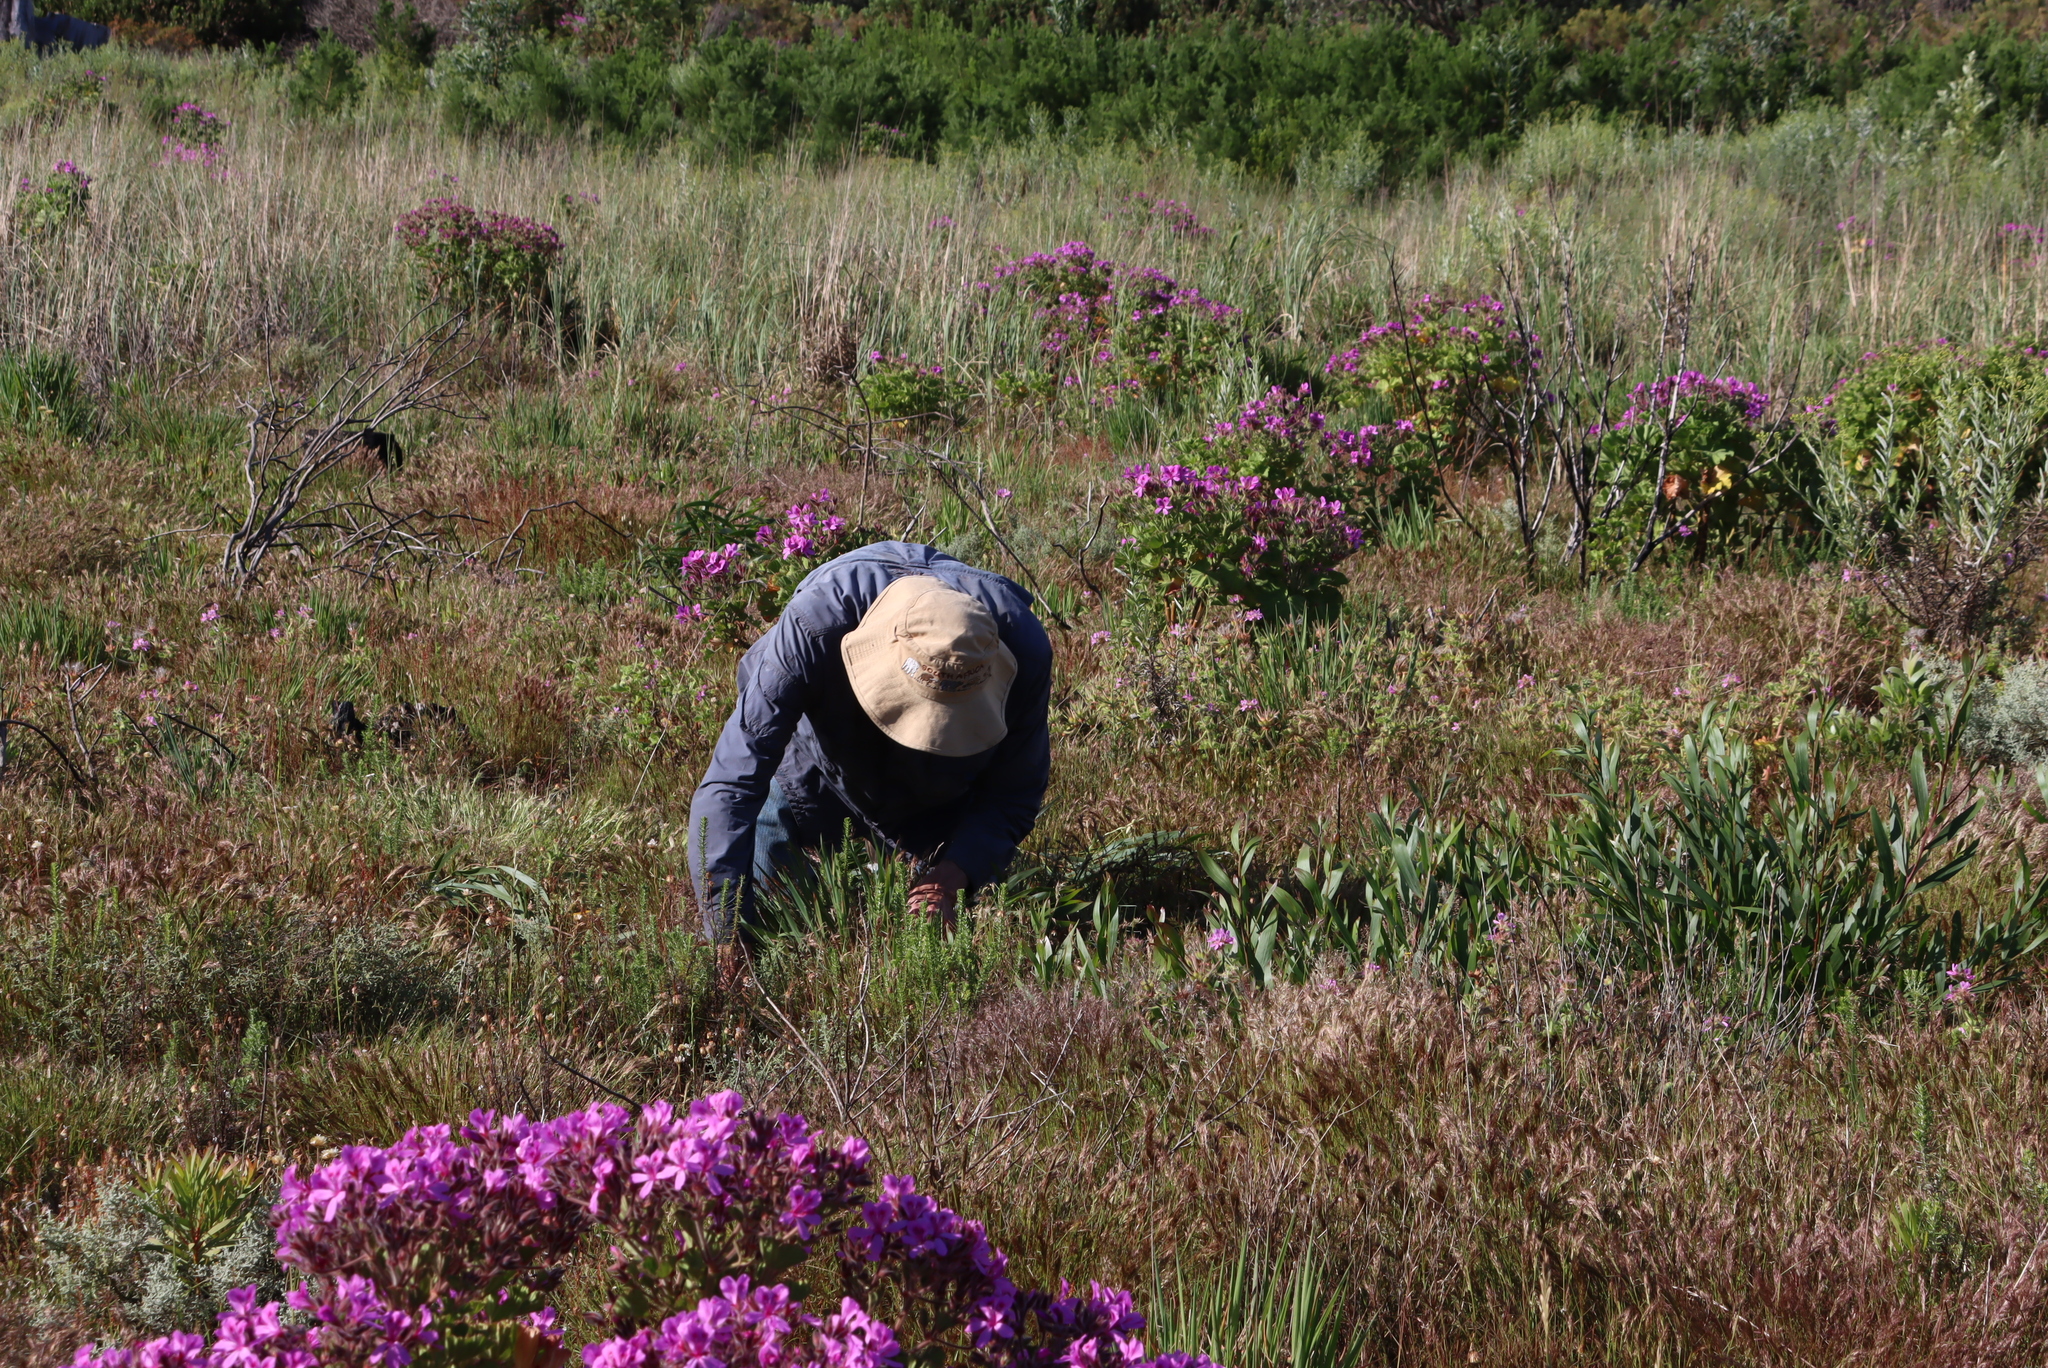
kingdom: Plantae
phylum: Tracheophyta
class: Magnoliopsida
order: Fabales
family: Fabaceae
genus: Acacia
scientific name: Acacia longifolia
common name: Sydney golden wattle
